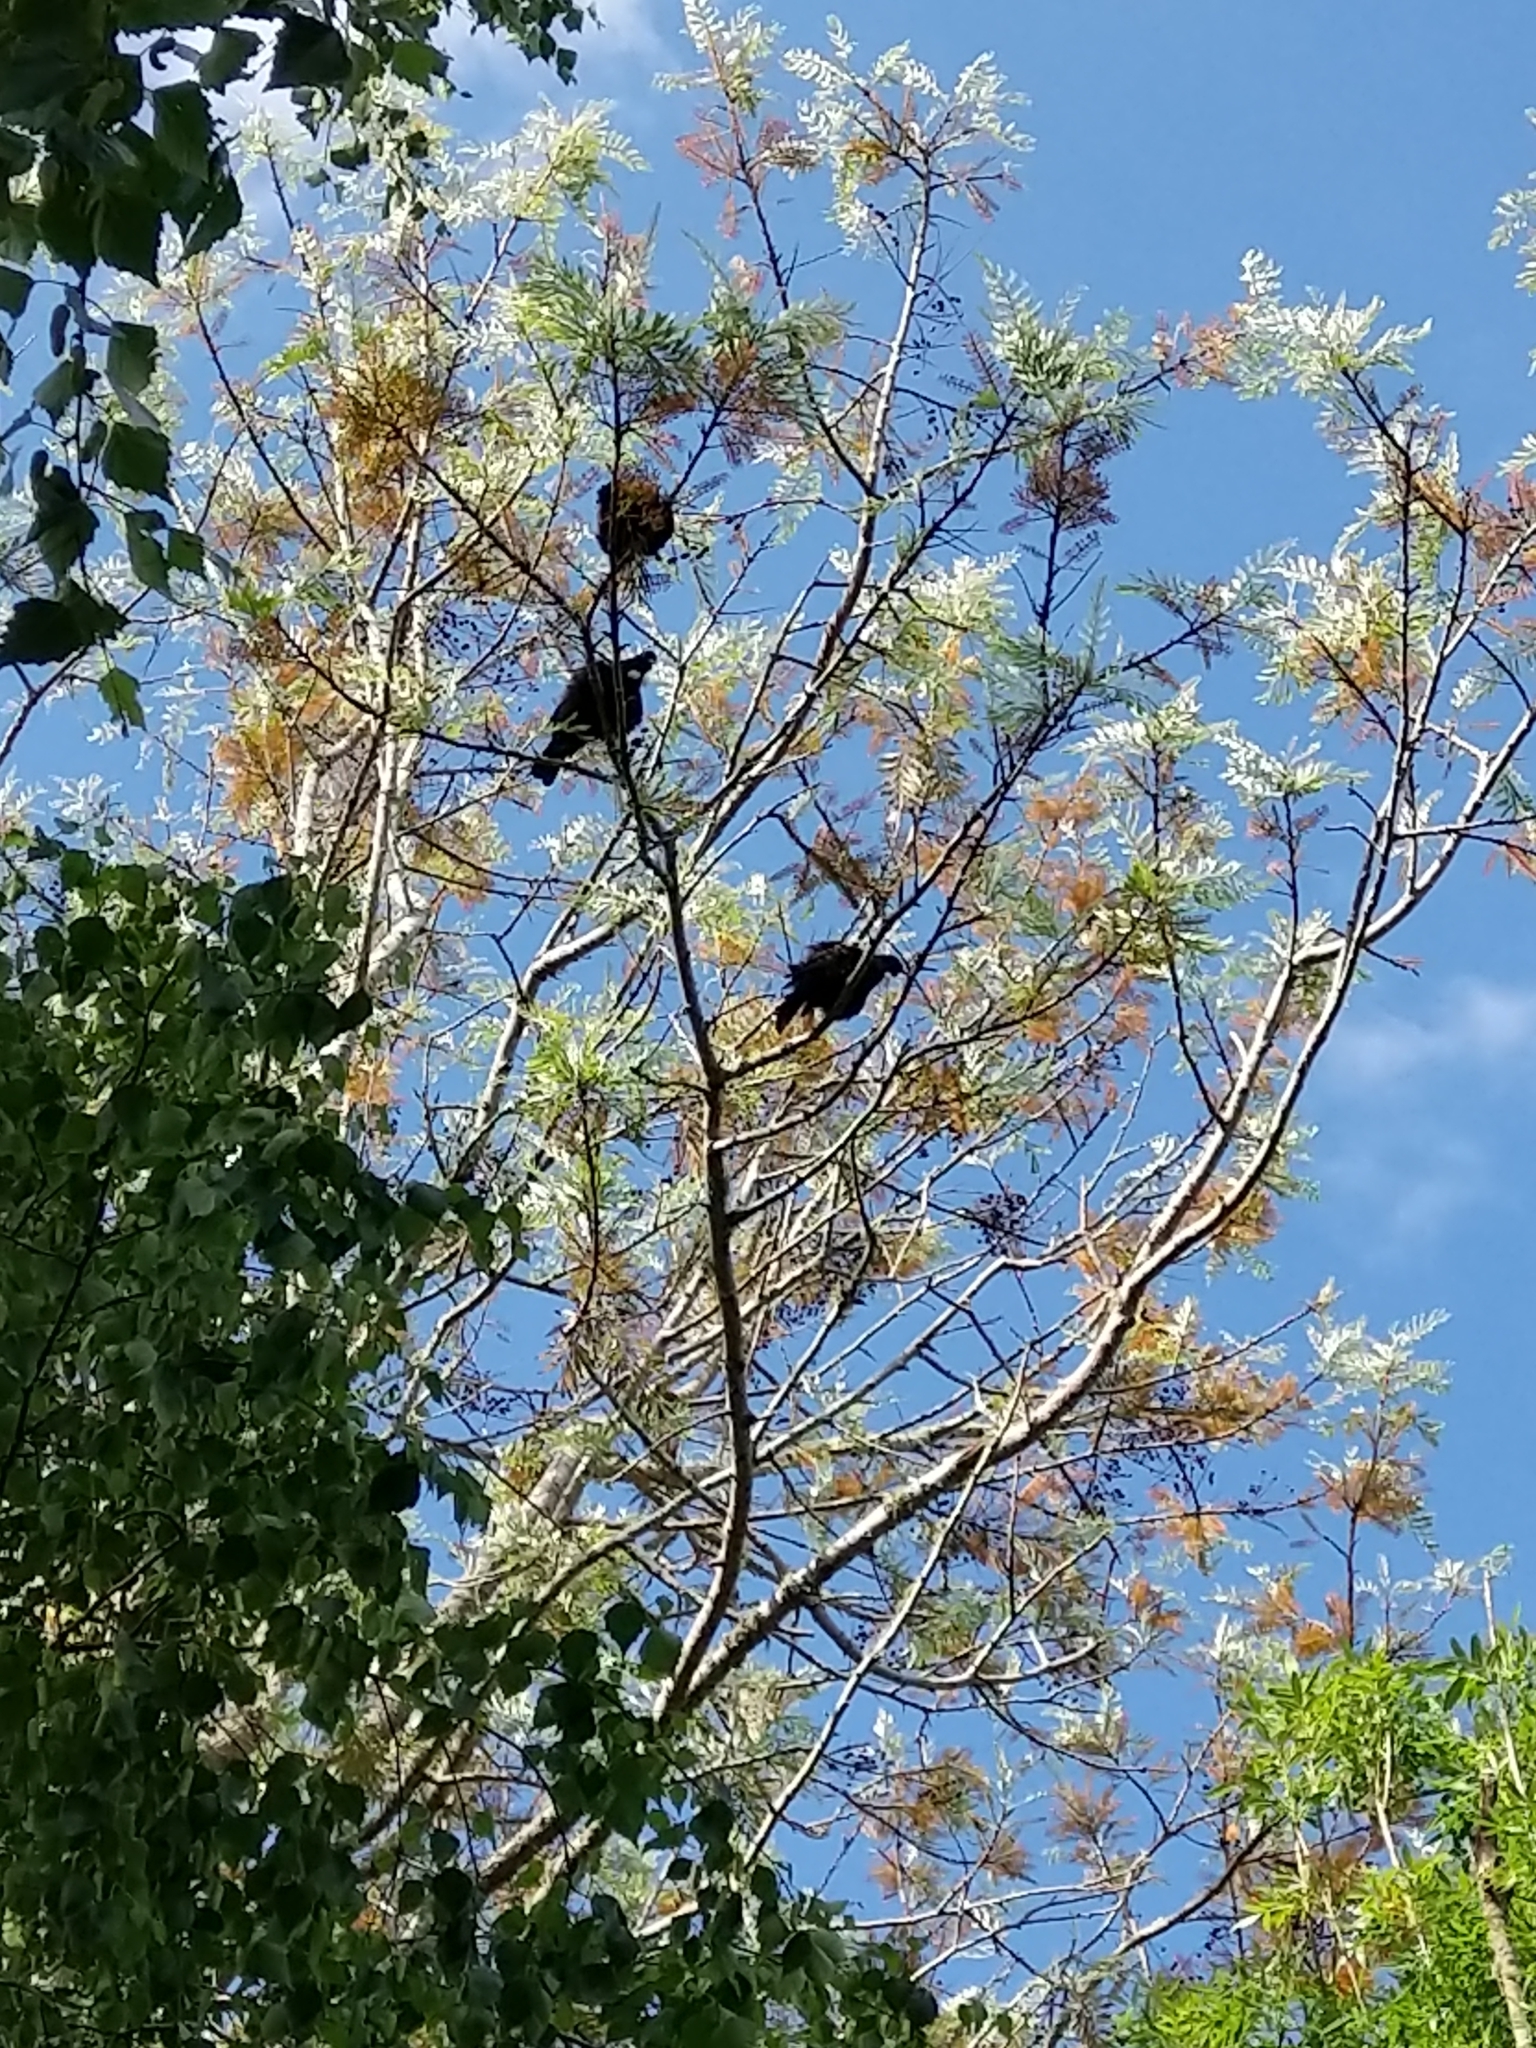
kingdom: Animalia
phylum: Chordata
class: Aves
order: Passeriformes
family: Meliphagidae
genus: Prosthemadera
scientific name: Prosthemadera novaeseelandiae
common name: Tui
